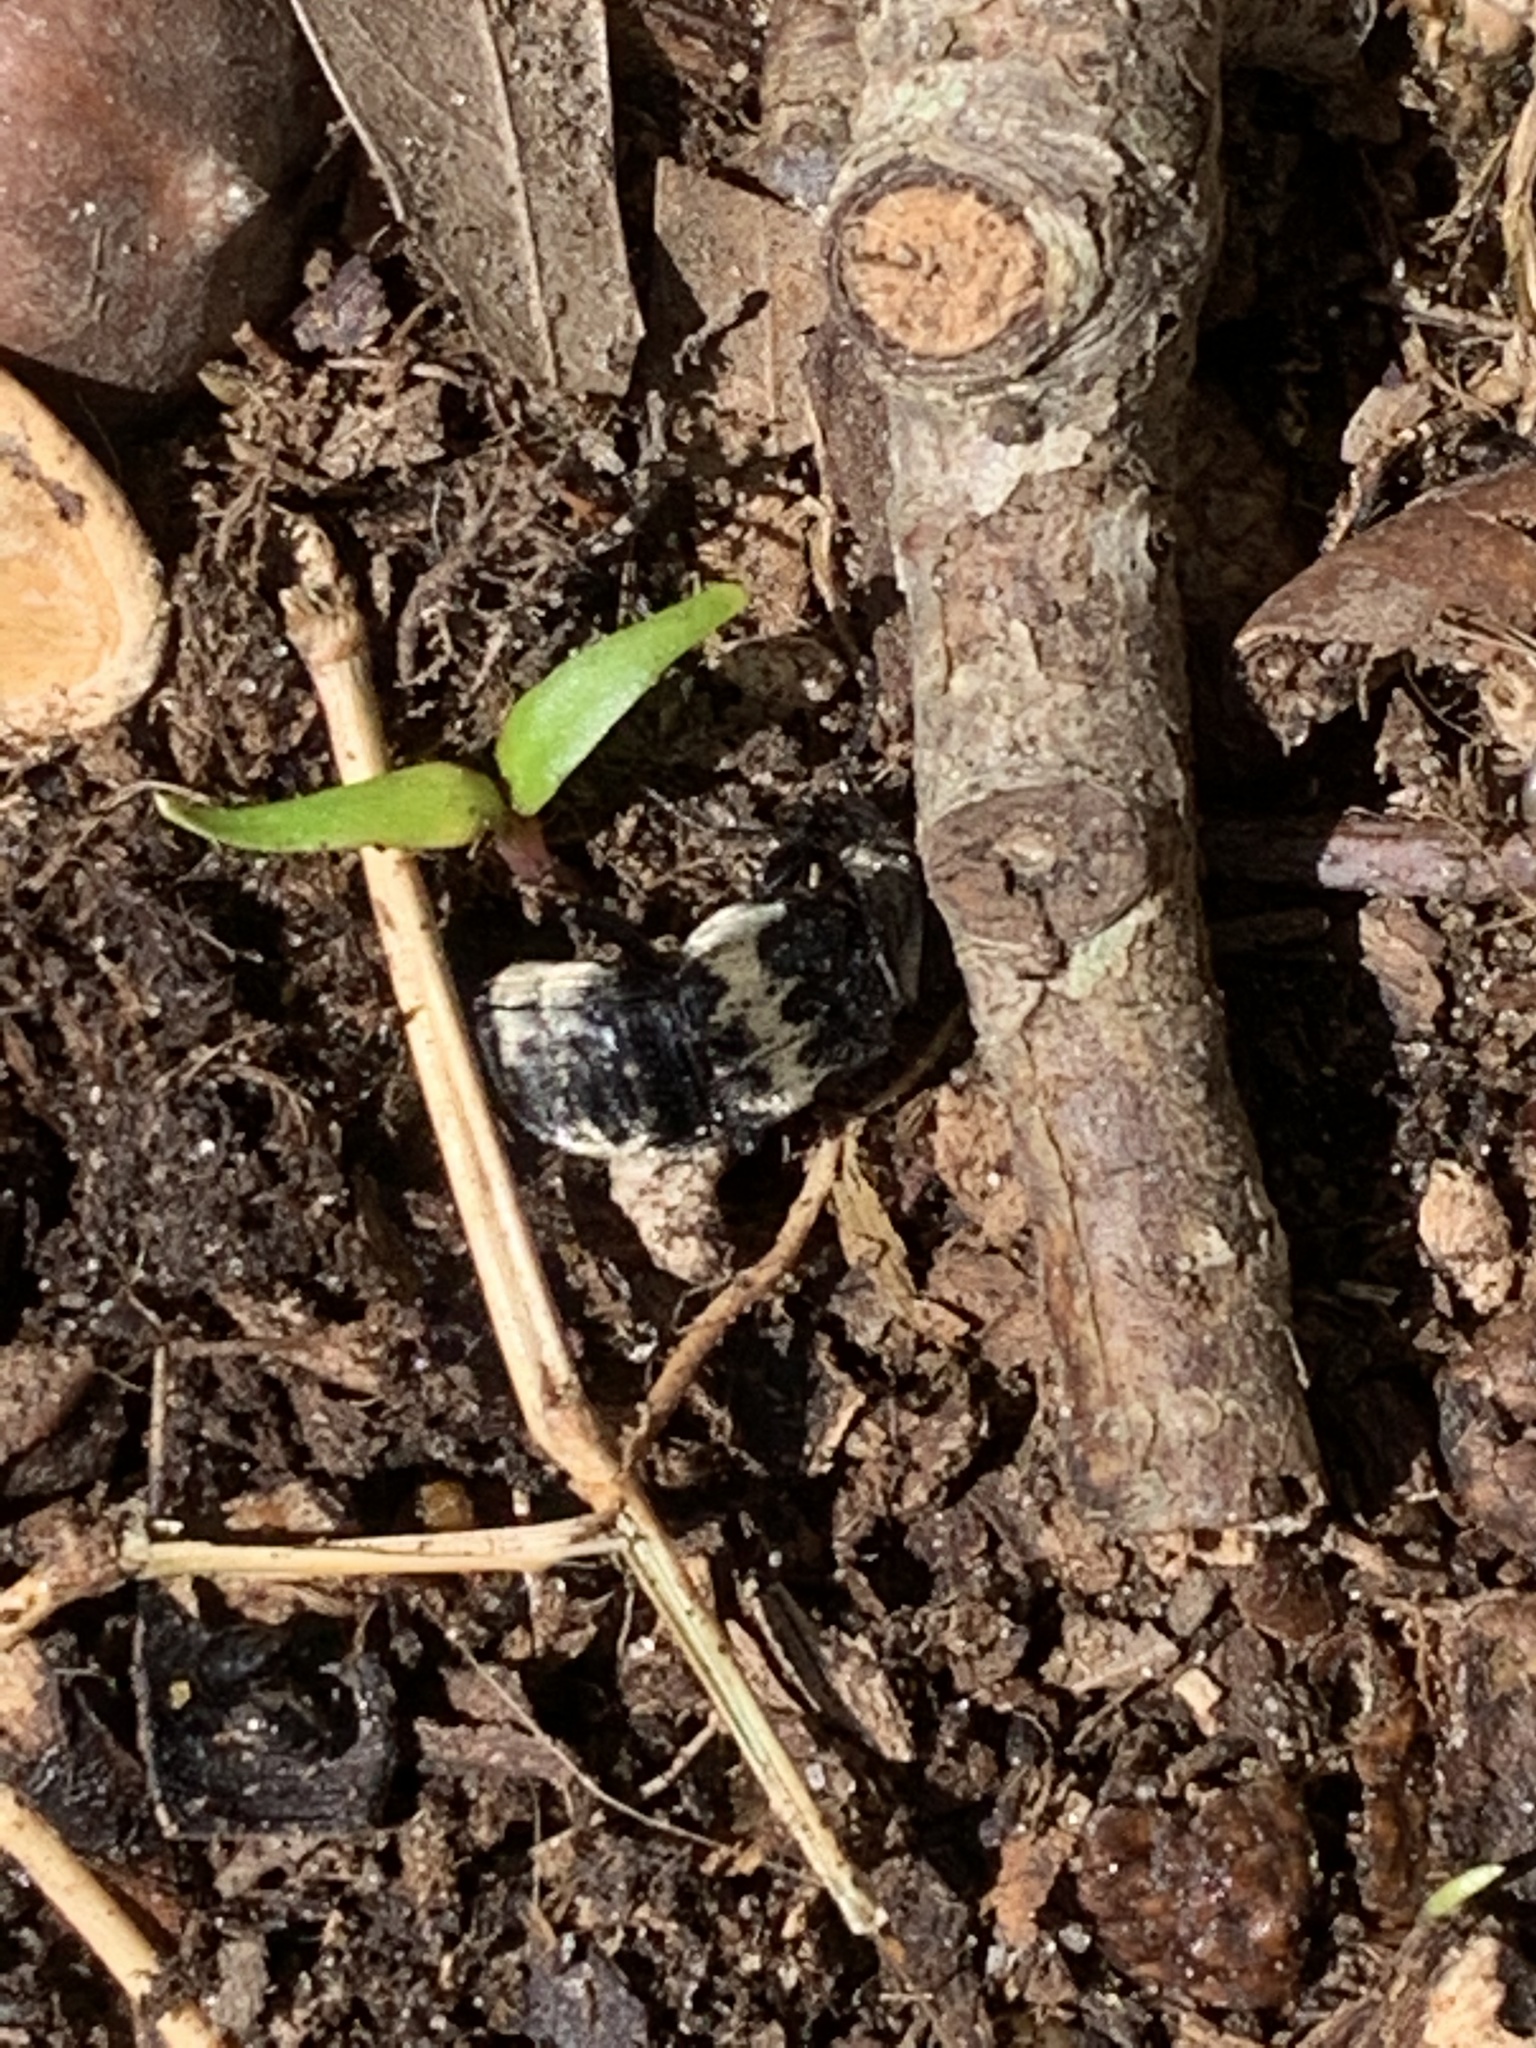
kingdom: Animalia
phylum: Arthropoda
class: Insecta
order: Coleoptera
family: Staphylinidae
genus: Creophilus
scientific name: Creophilus maxillosus
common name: Hairy rove beetle
